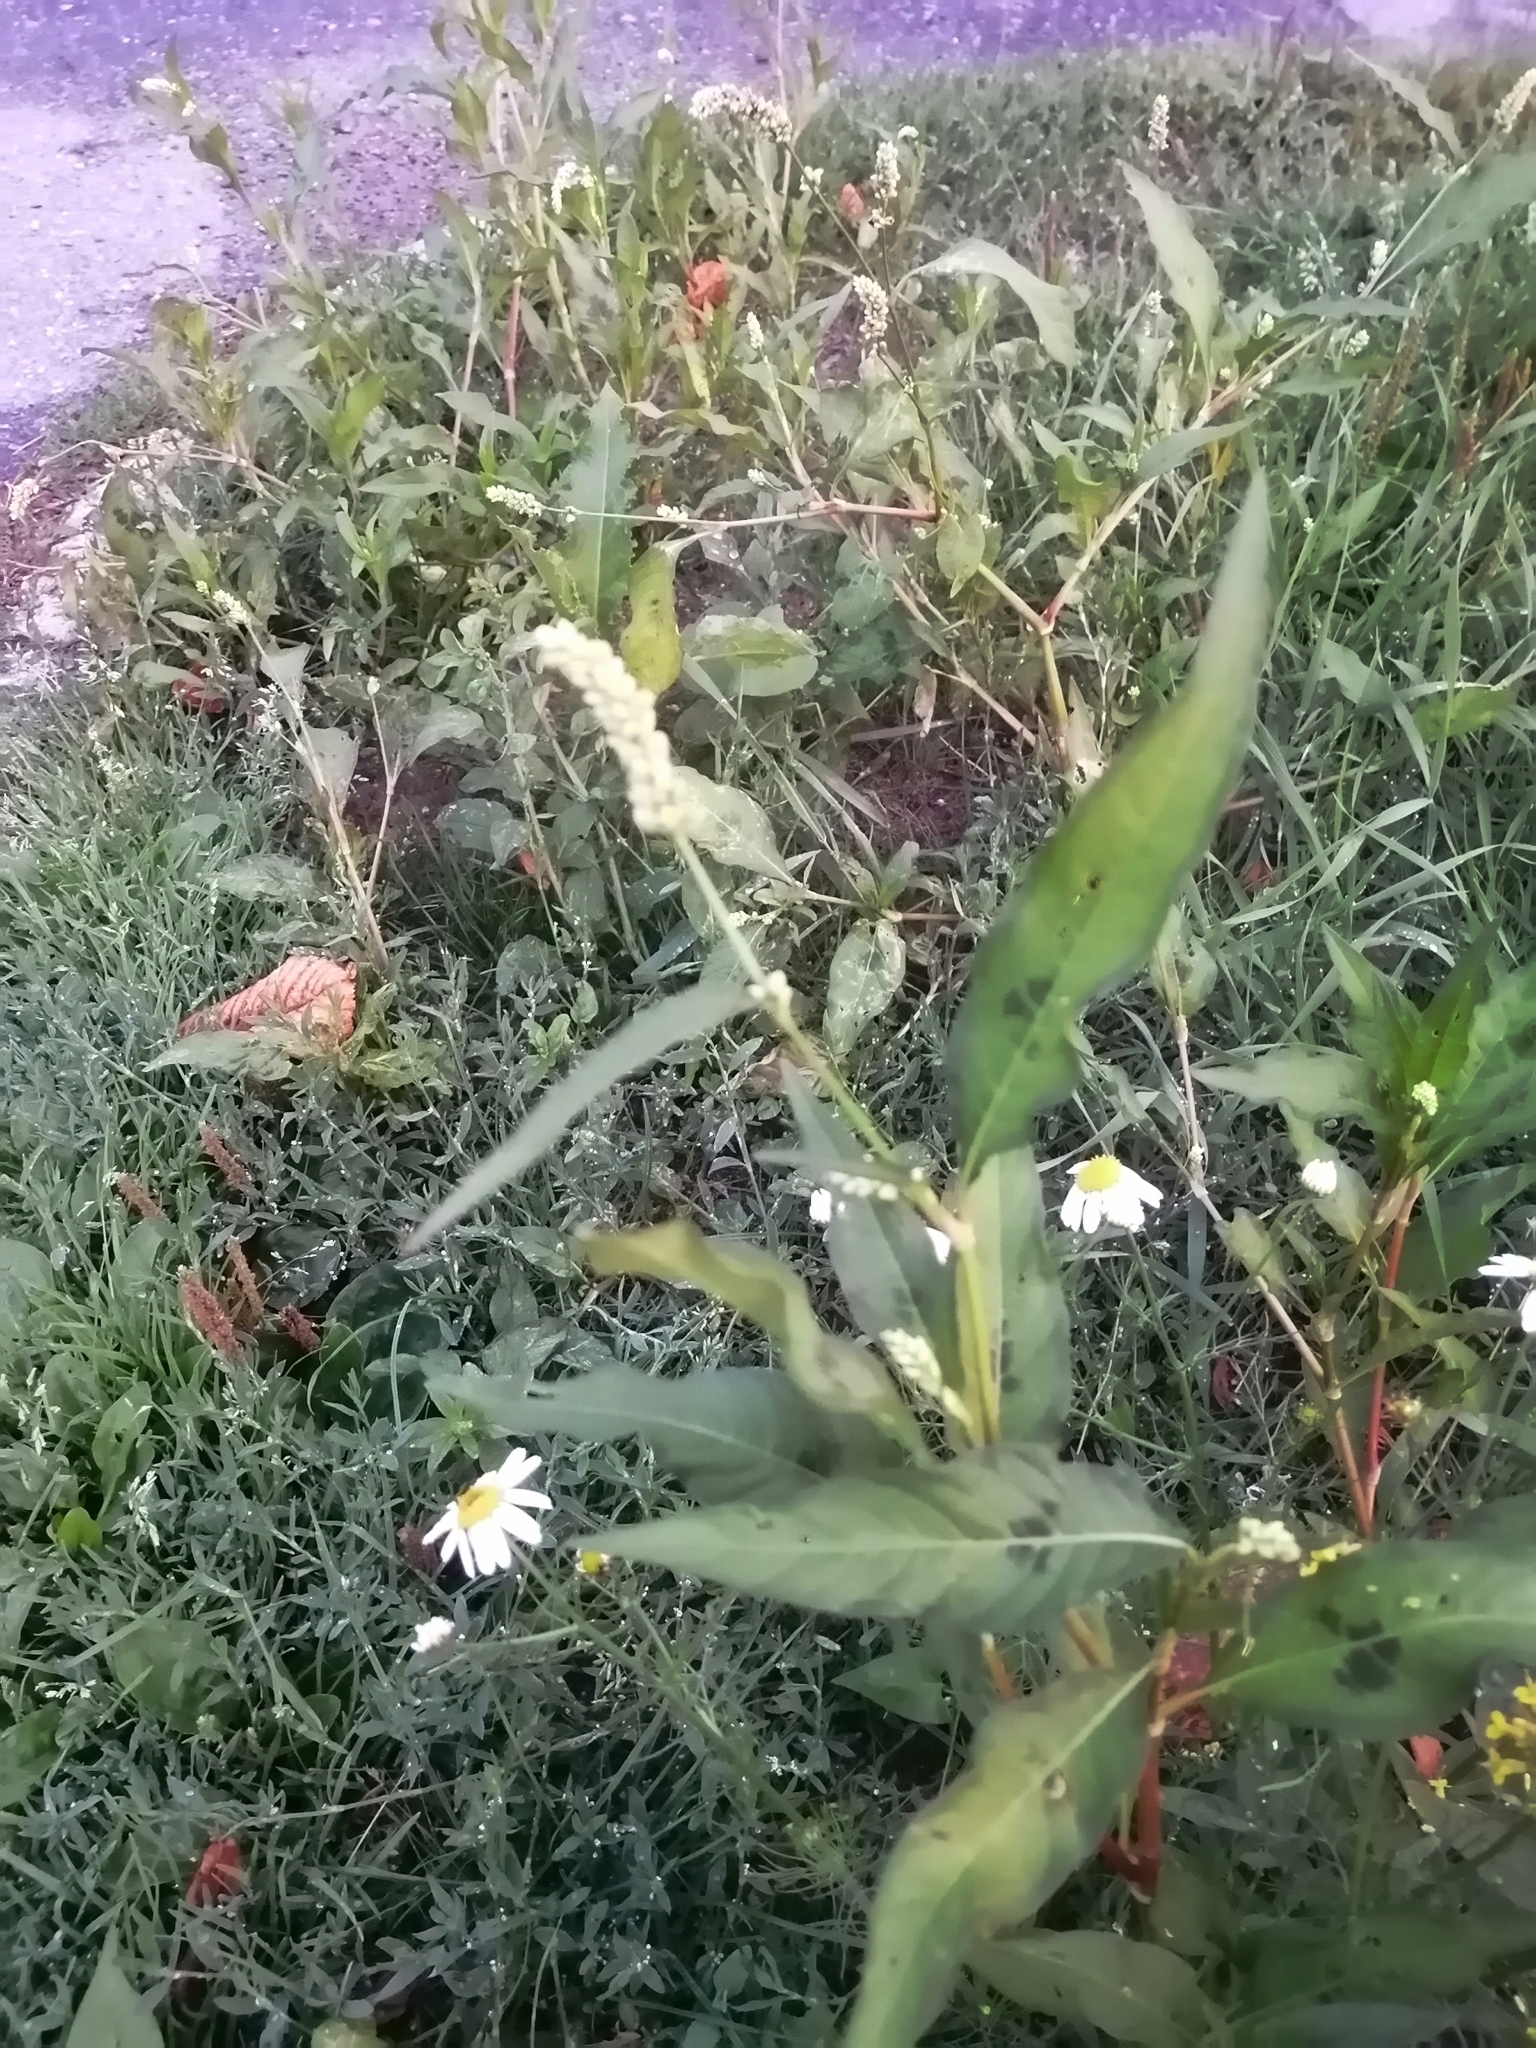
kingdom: Plantae
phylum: Tracheophyta
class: Magnoliopsida
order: Caryophyllales
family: Polygonaceae
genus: Persicaria
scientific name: Persicaria lapathifolia
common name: Curlytop knotweed
